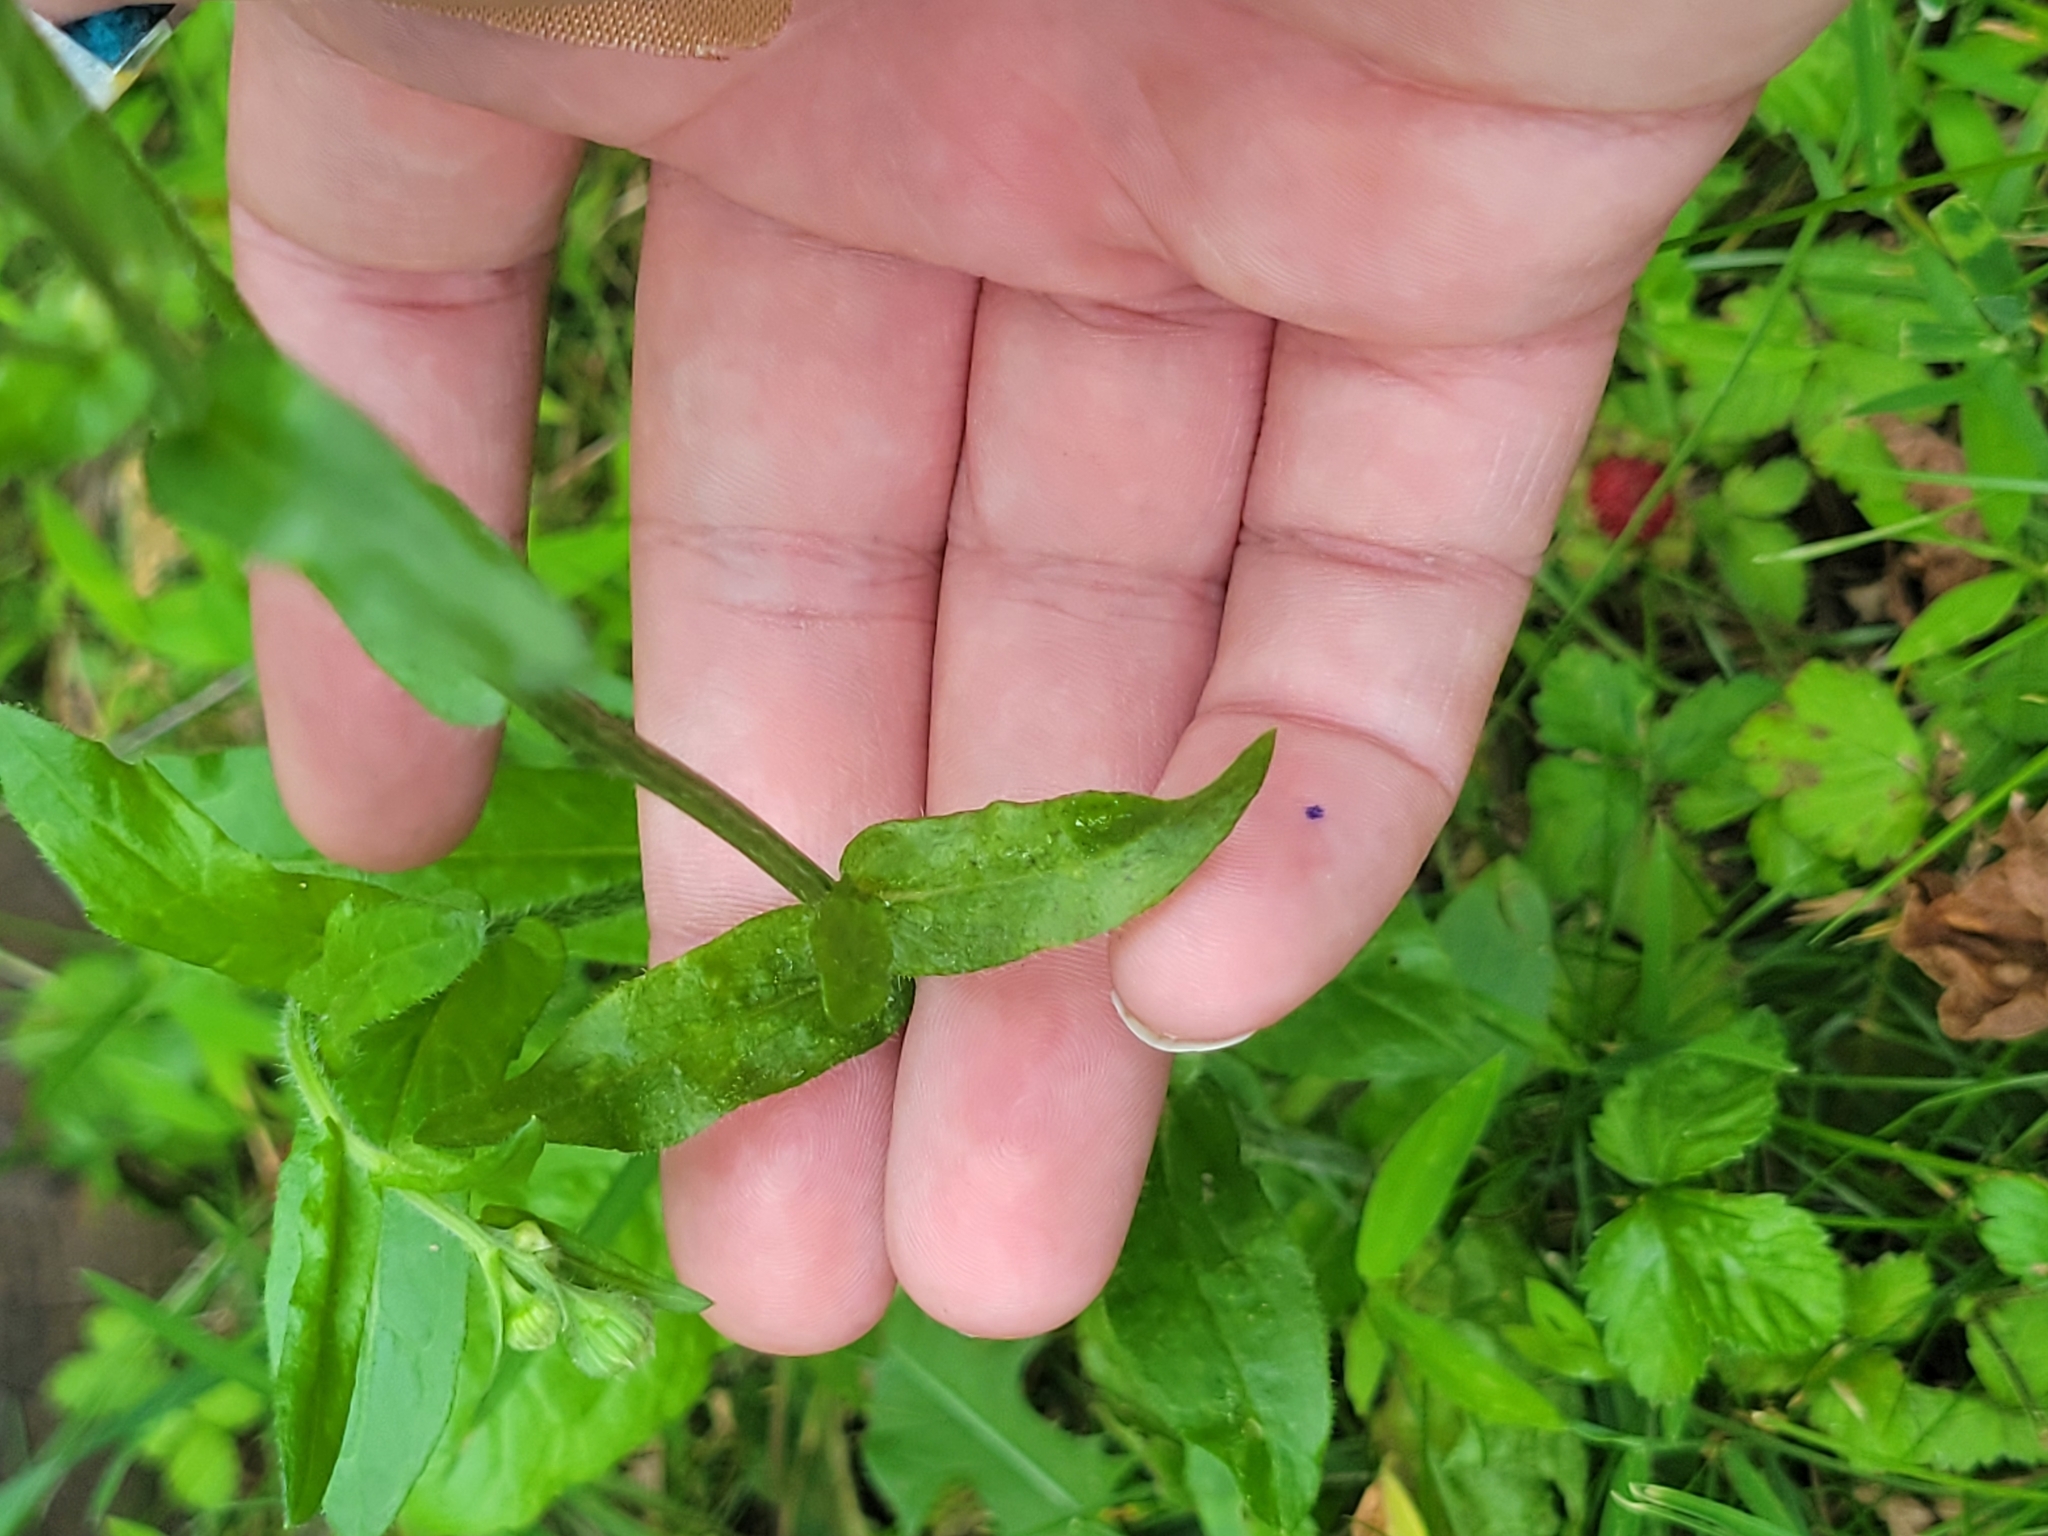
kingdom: Plantae
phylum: Tracheophyta
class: Magnoliopsida
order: Asterales
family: Asteraceae
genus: Erigeron
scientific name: Erigeron philadelphicus
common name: Robin's-plantain
